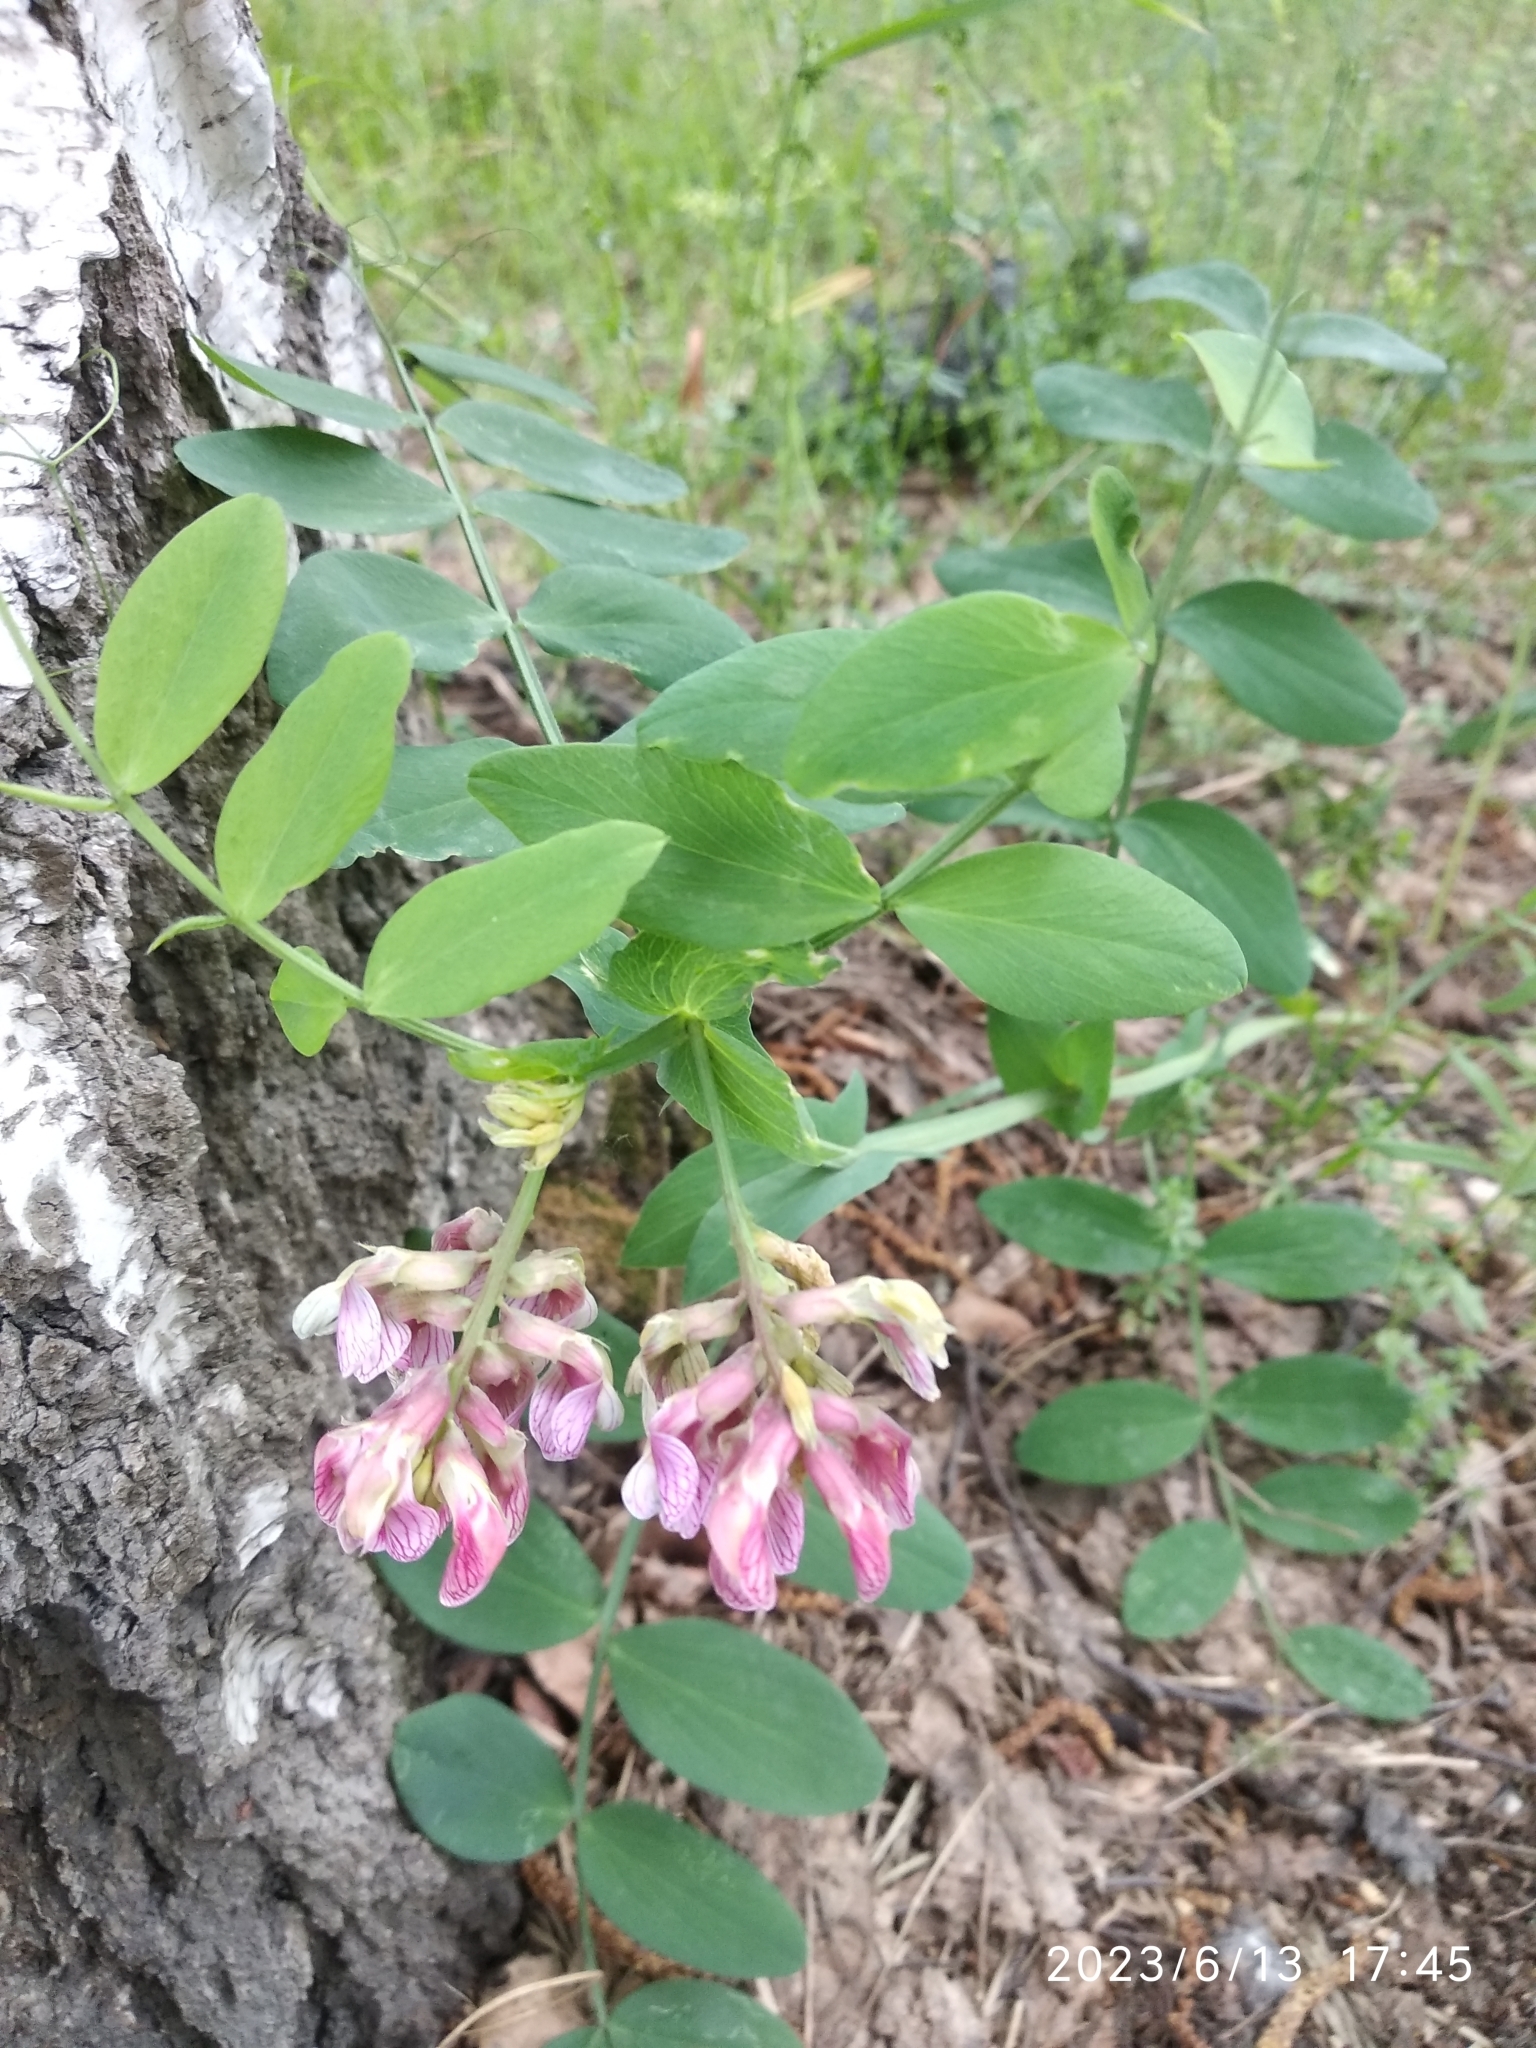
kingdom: Plantae
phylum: Tracheophyta
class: Magnoliopsida
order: Fabales
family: Fabaceae
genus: Lathyrus
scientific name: Lathyrus pisiformis
